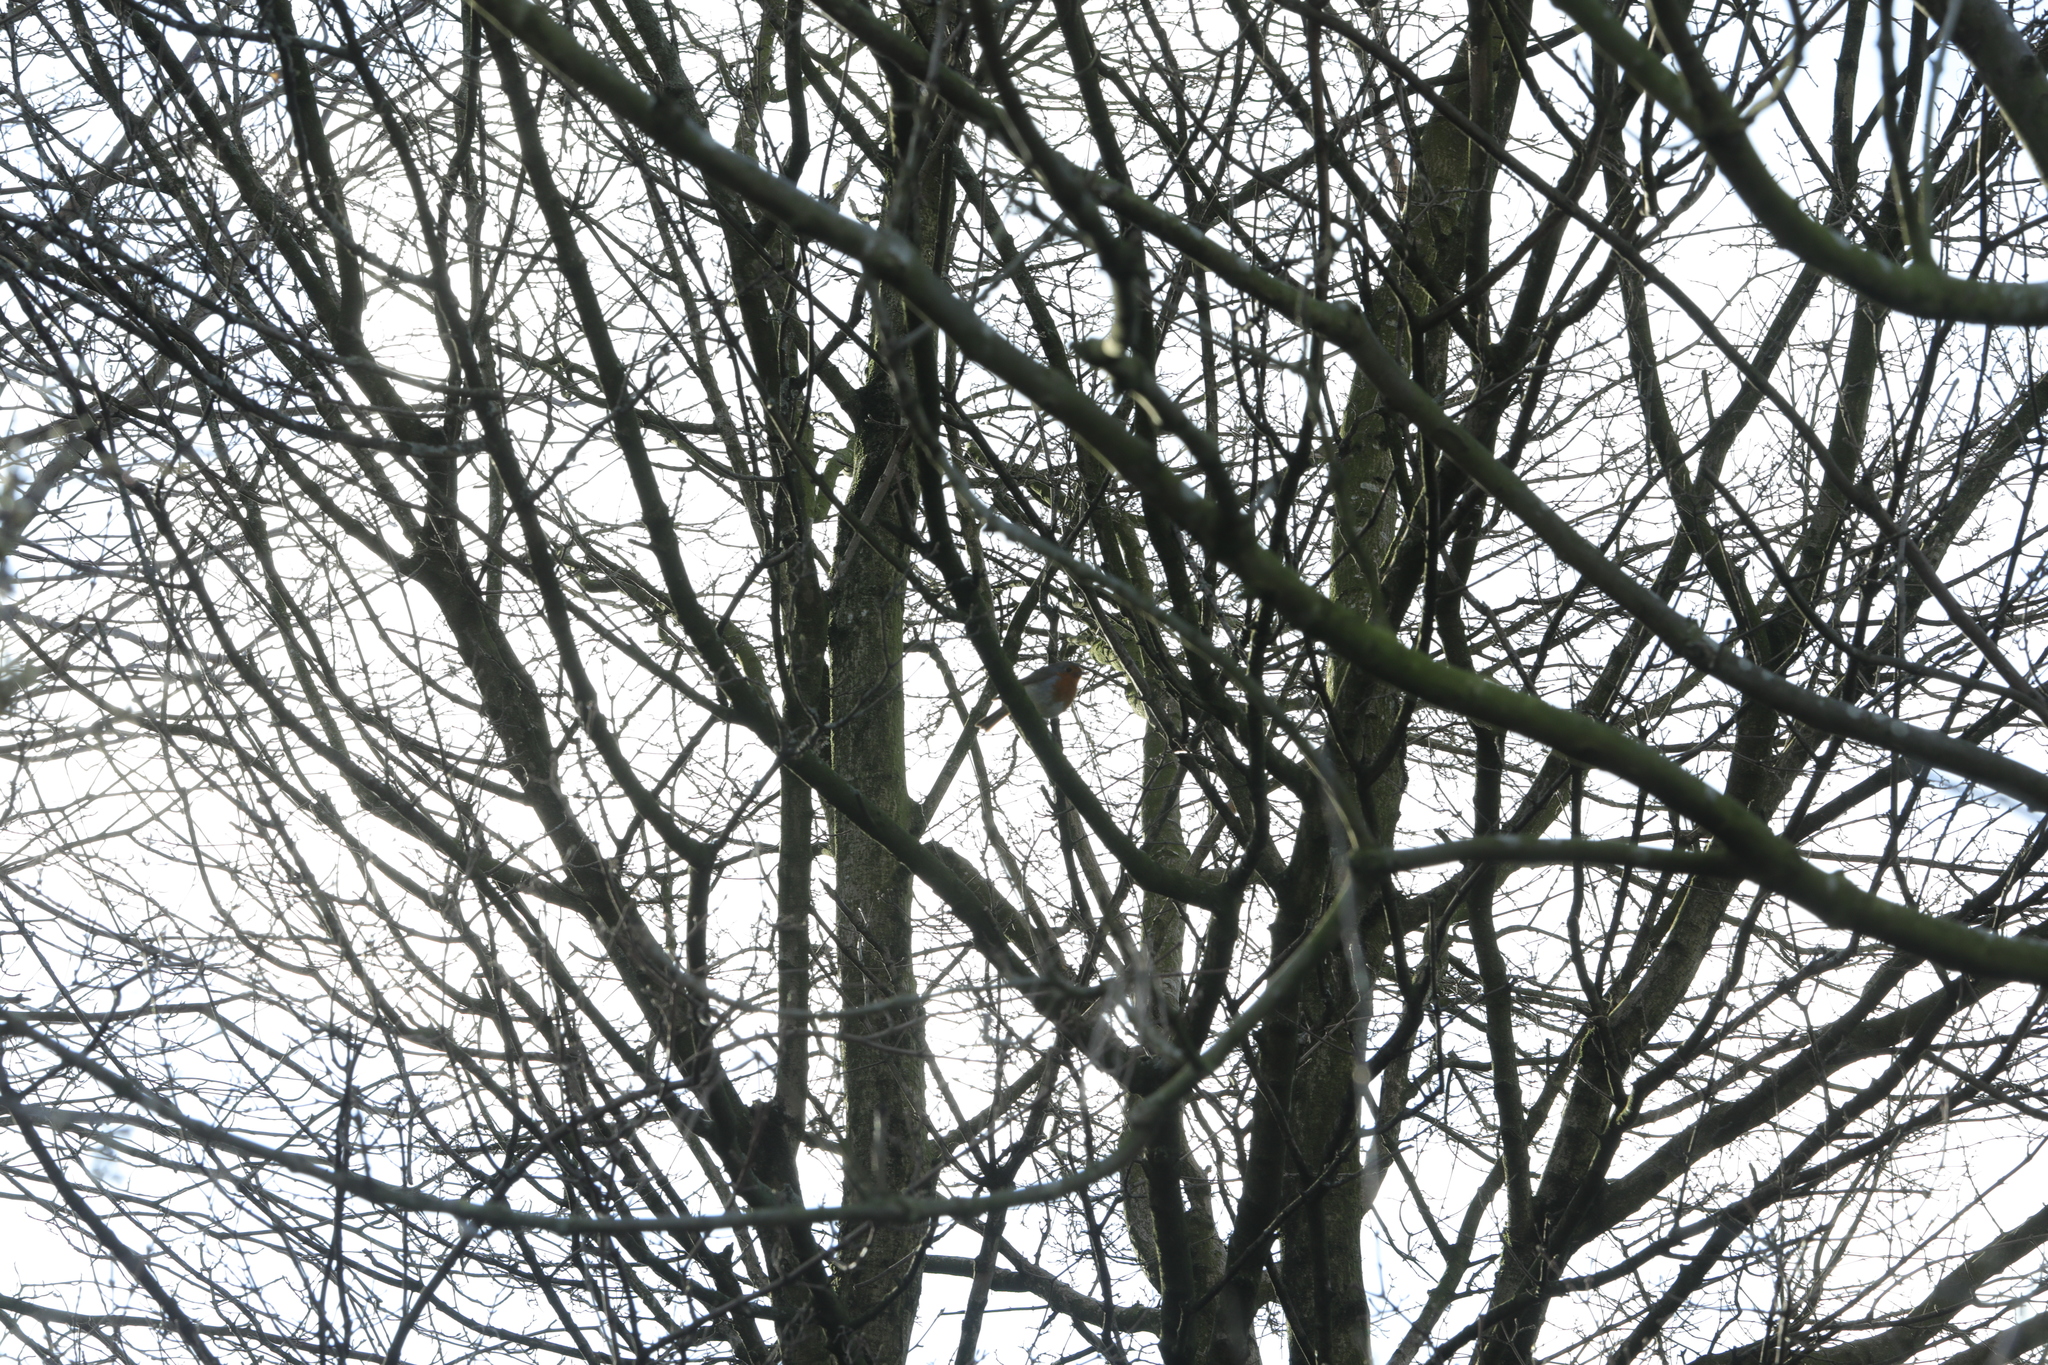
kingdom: Animalia
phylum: Chordata
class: Aves
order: Passeriformes
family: Muscicapidae
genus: Erithacus
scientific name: Erithacus rubecula
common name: European robin
